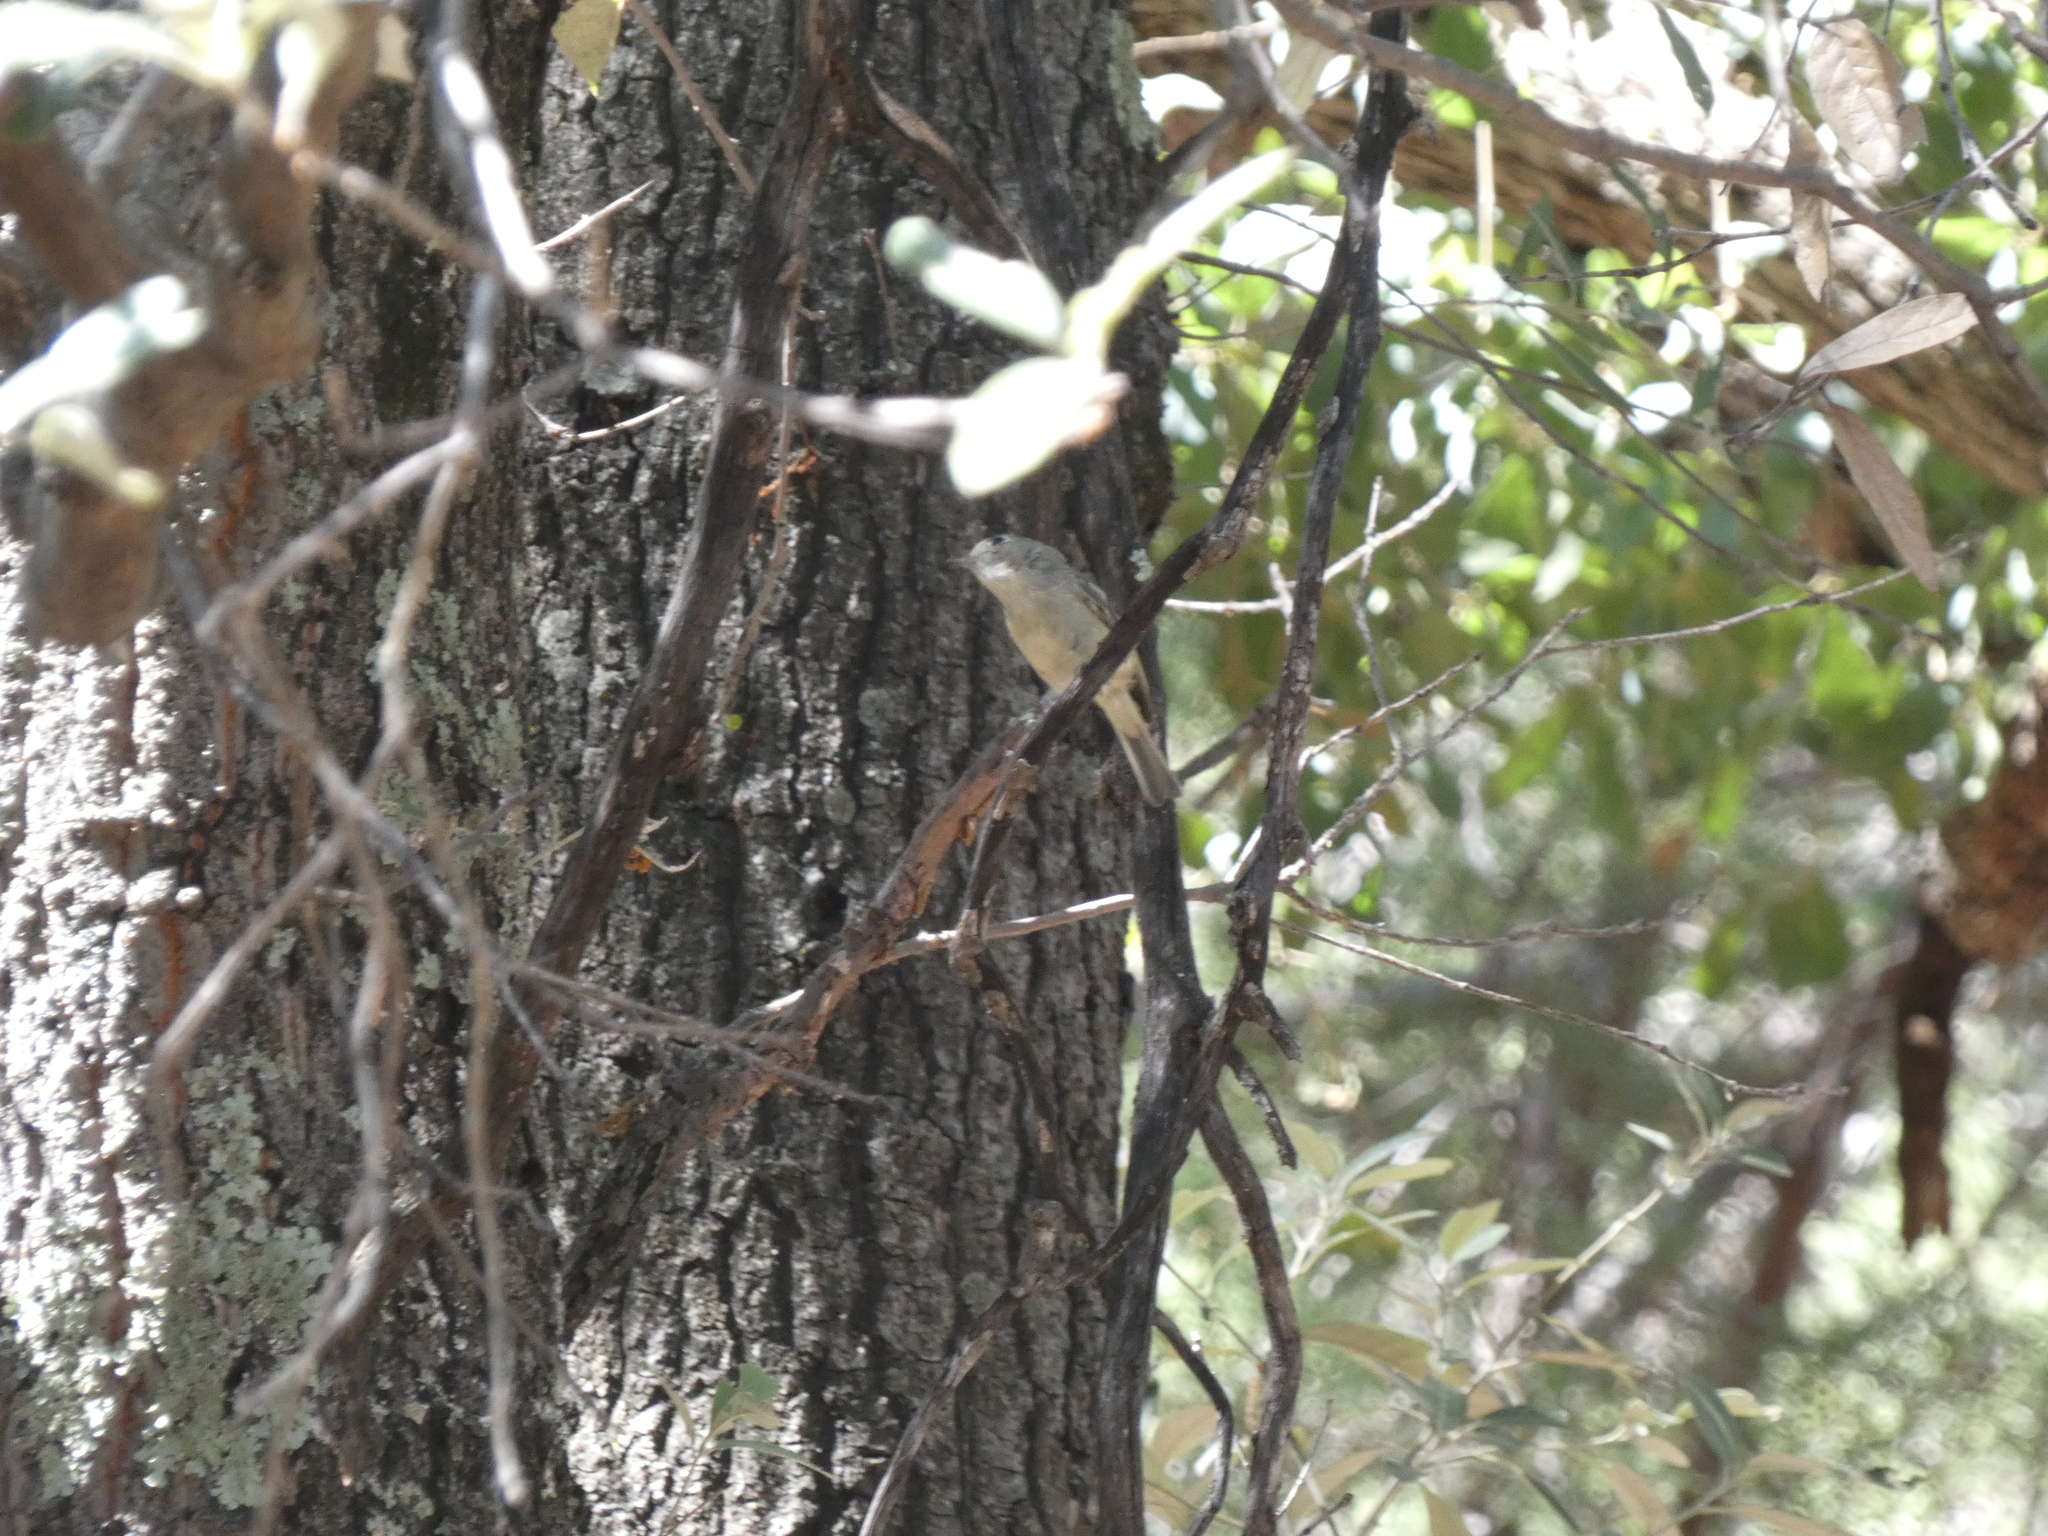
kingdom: Animalia
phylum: Chordata
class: Aves
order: Passeriformes
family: Vireonidae
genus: Vireo
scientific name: Vireo huttoni
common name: Hutton's vireo
